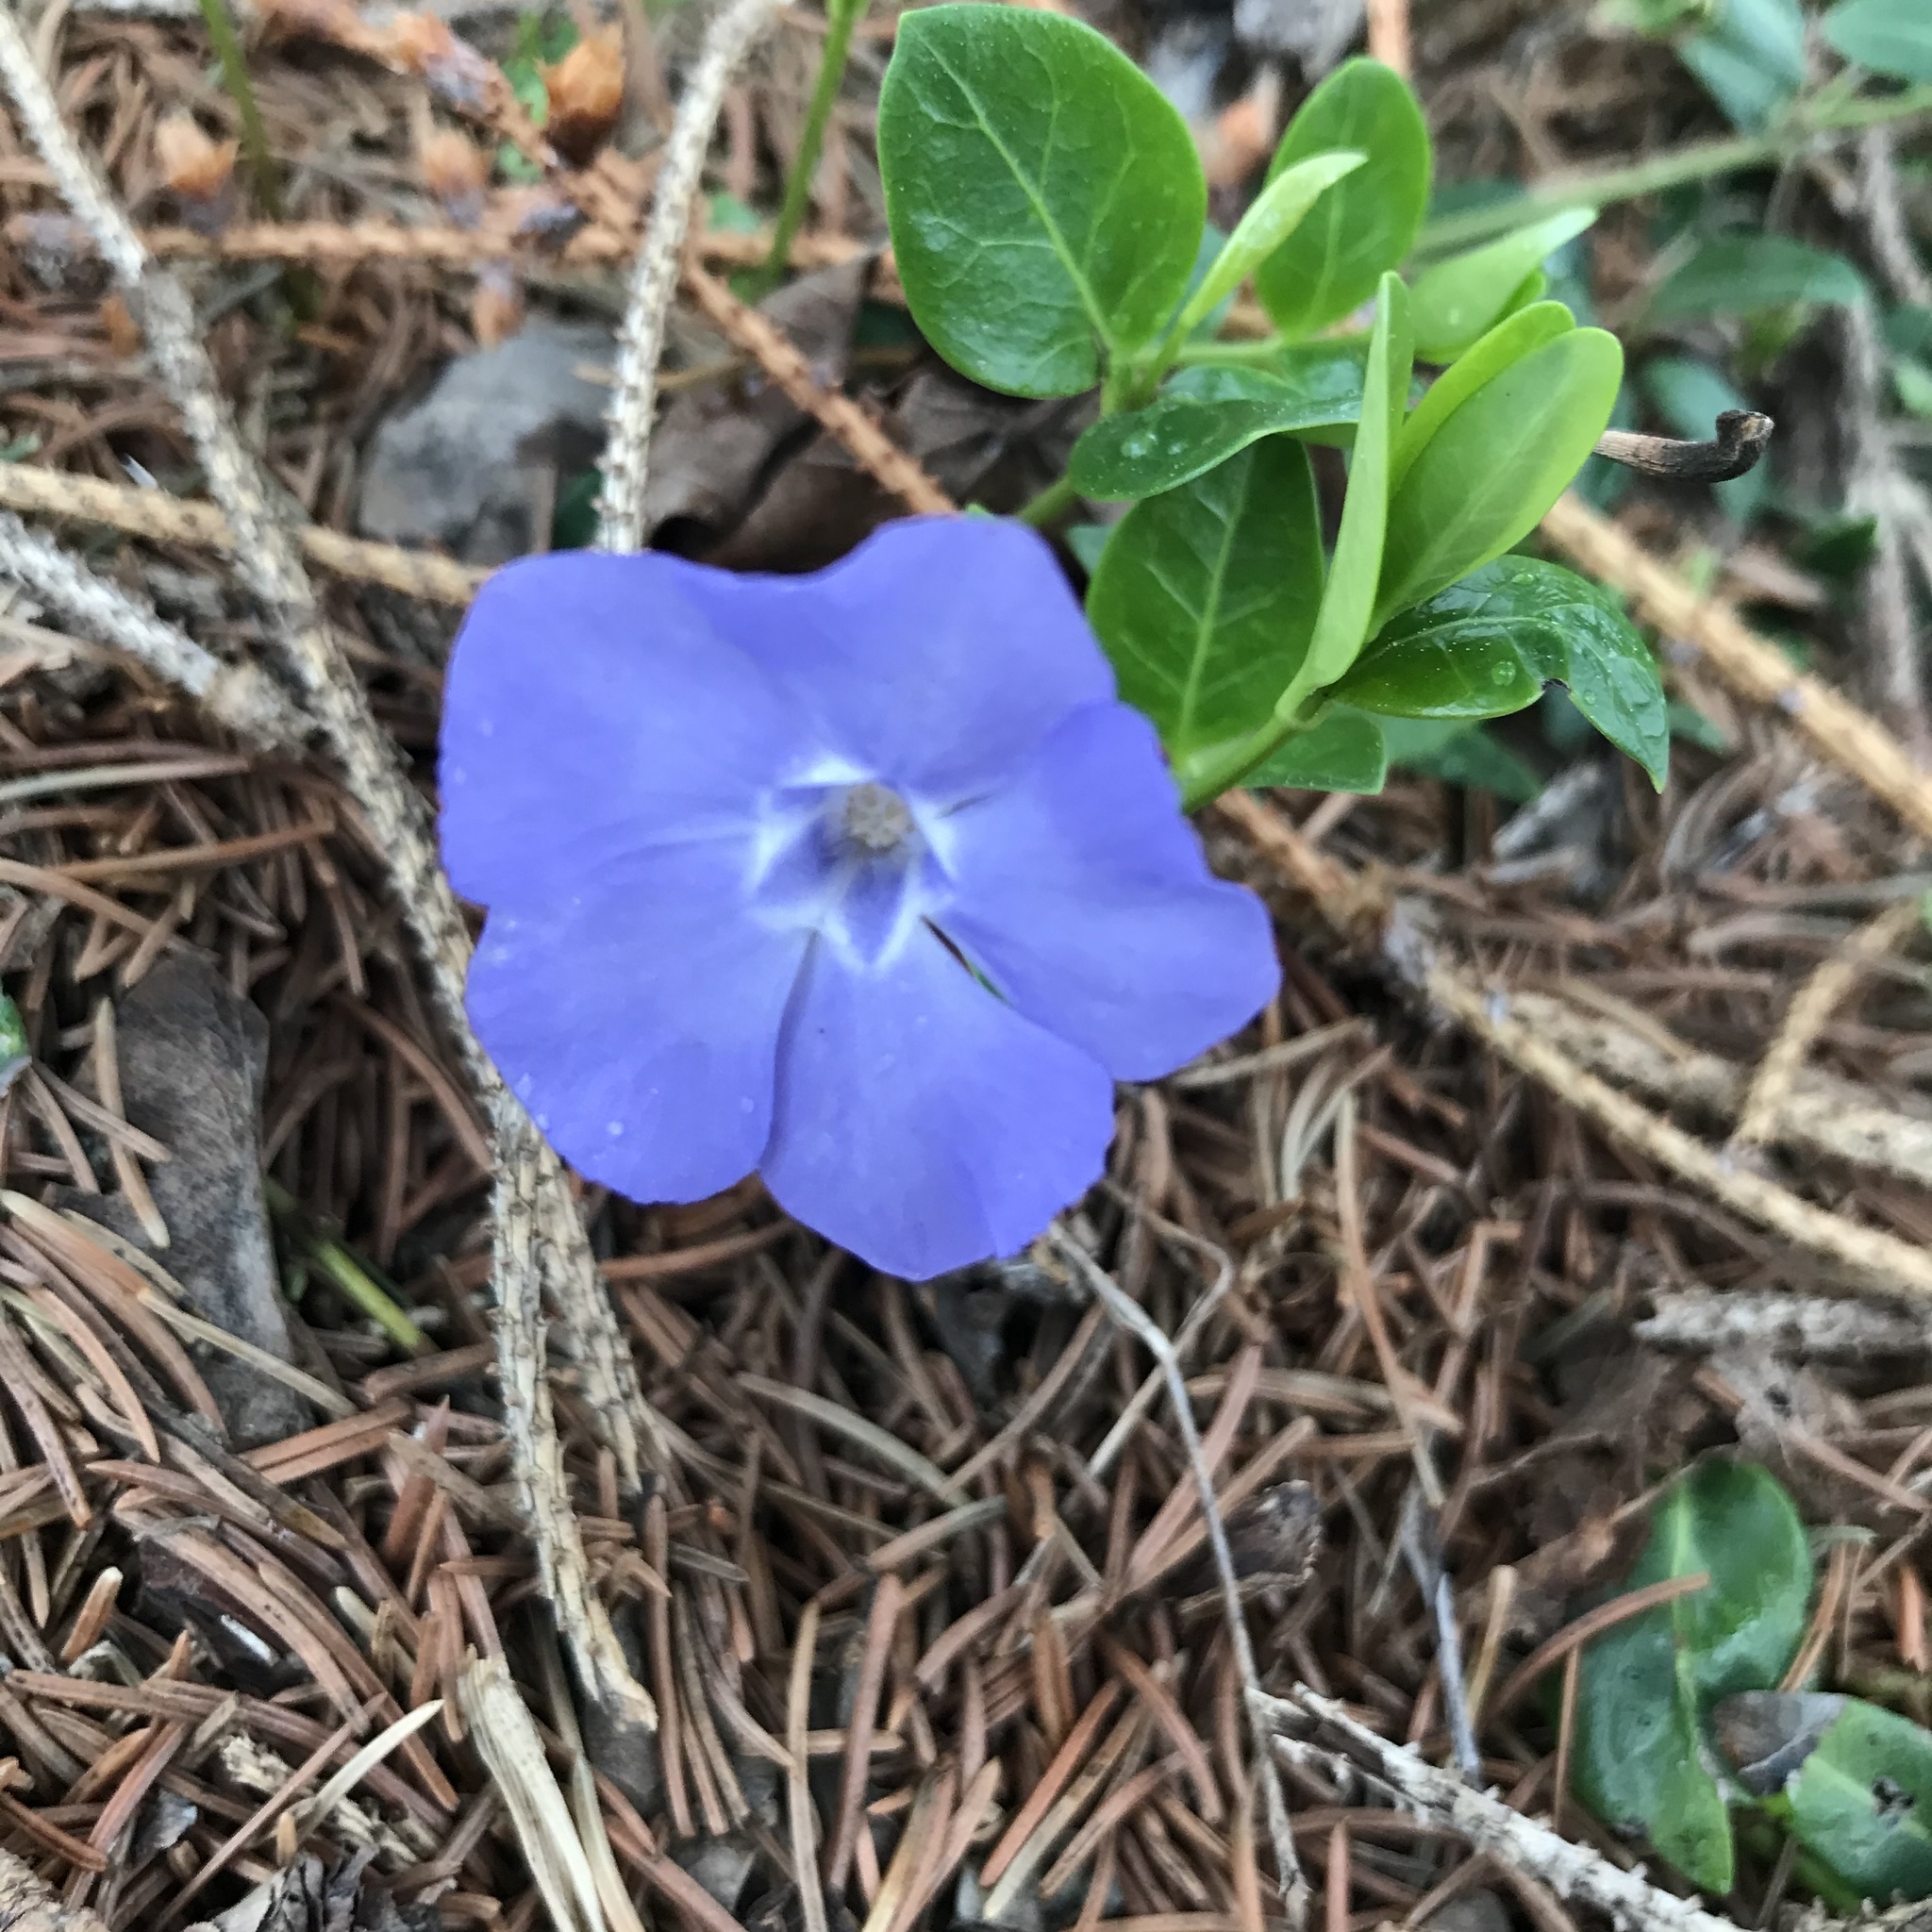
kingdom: Plantae
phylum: Tracheophyta
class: Magnoliopsida
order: Gentianales
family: Apocynaceae
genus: Vinca
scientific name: Vinca minor
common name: Lesser periwinkle
